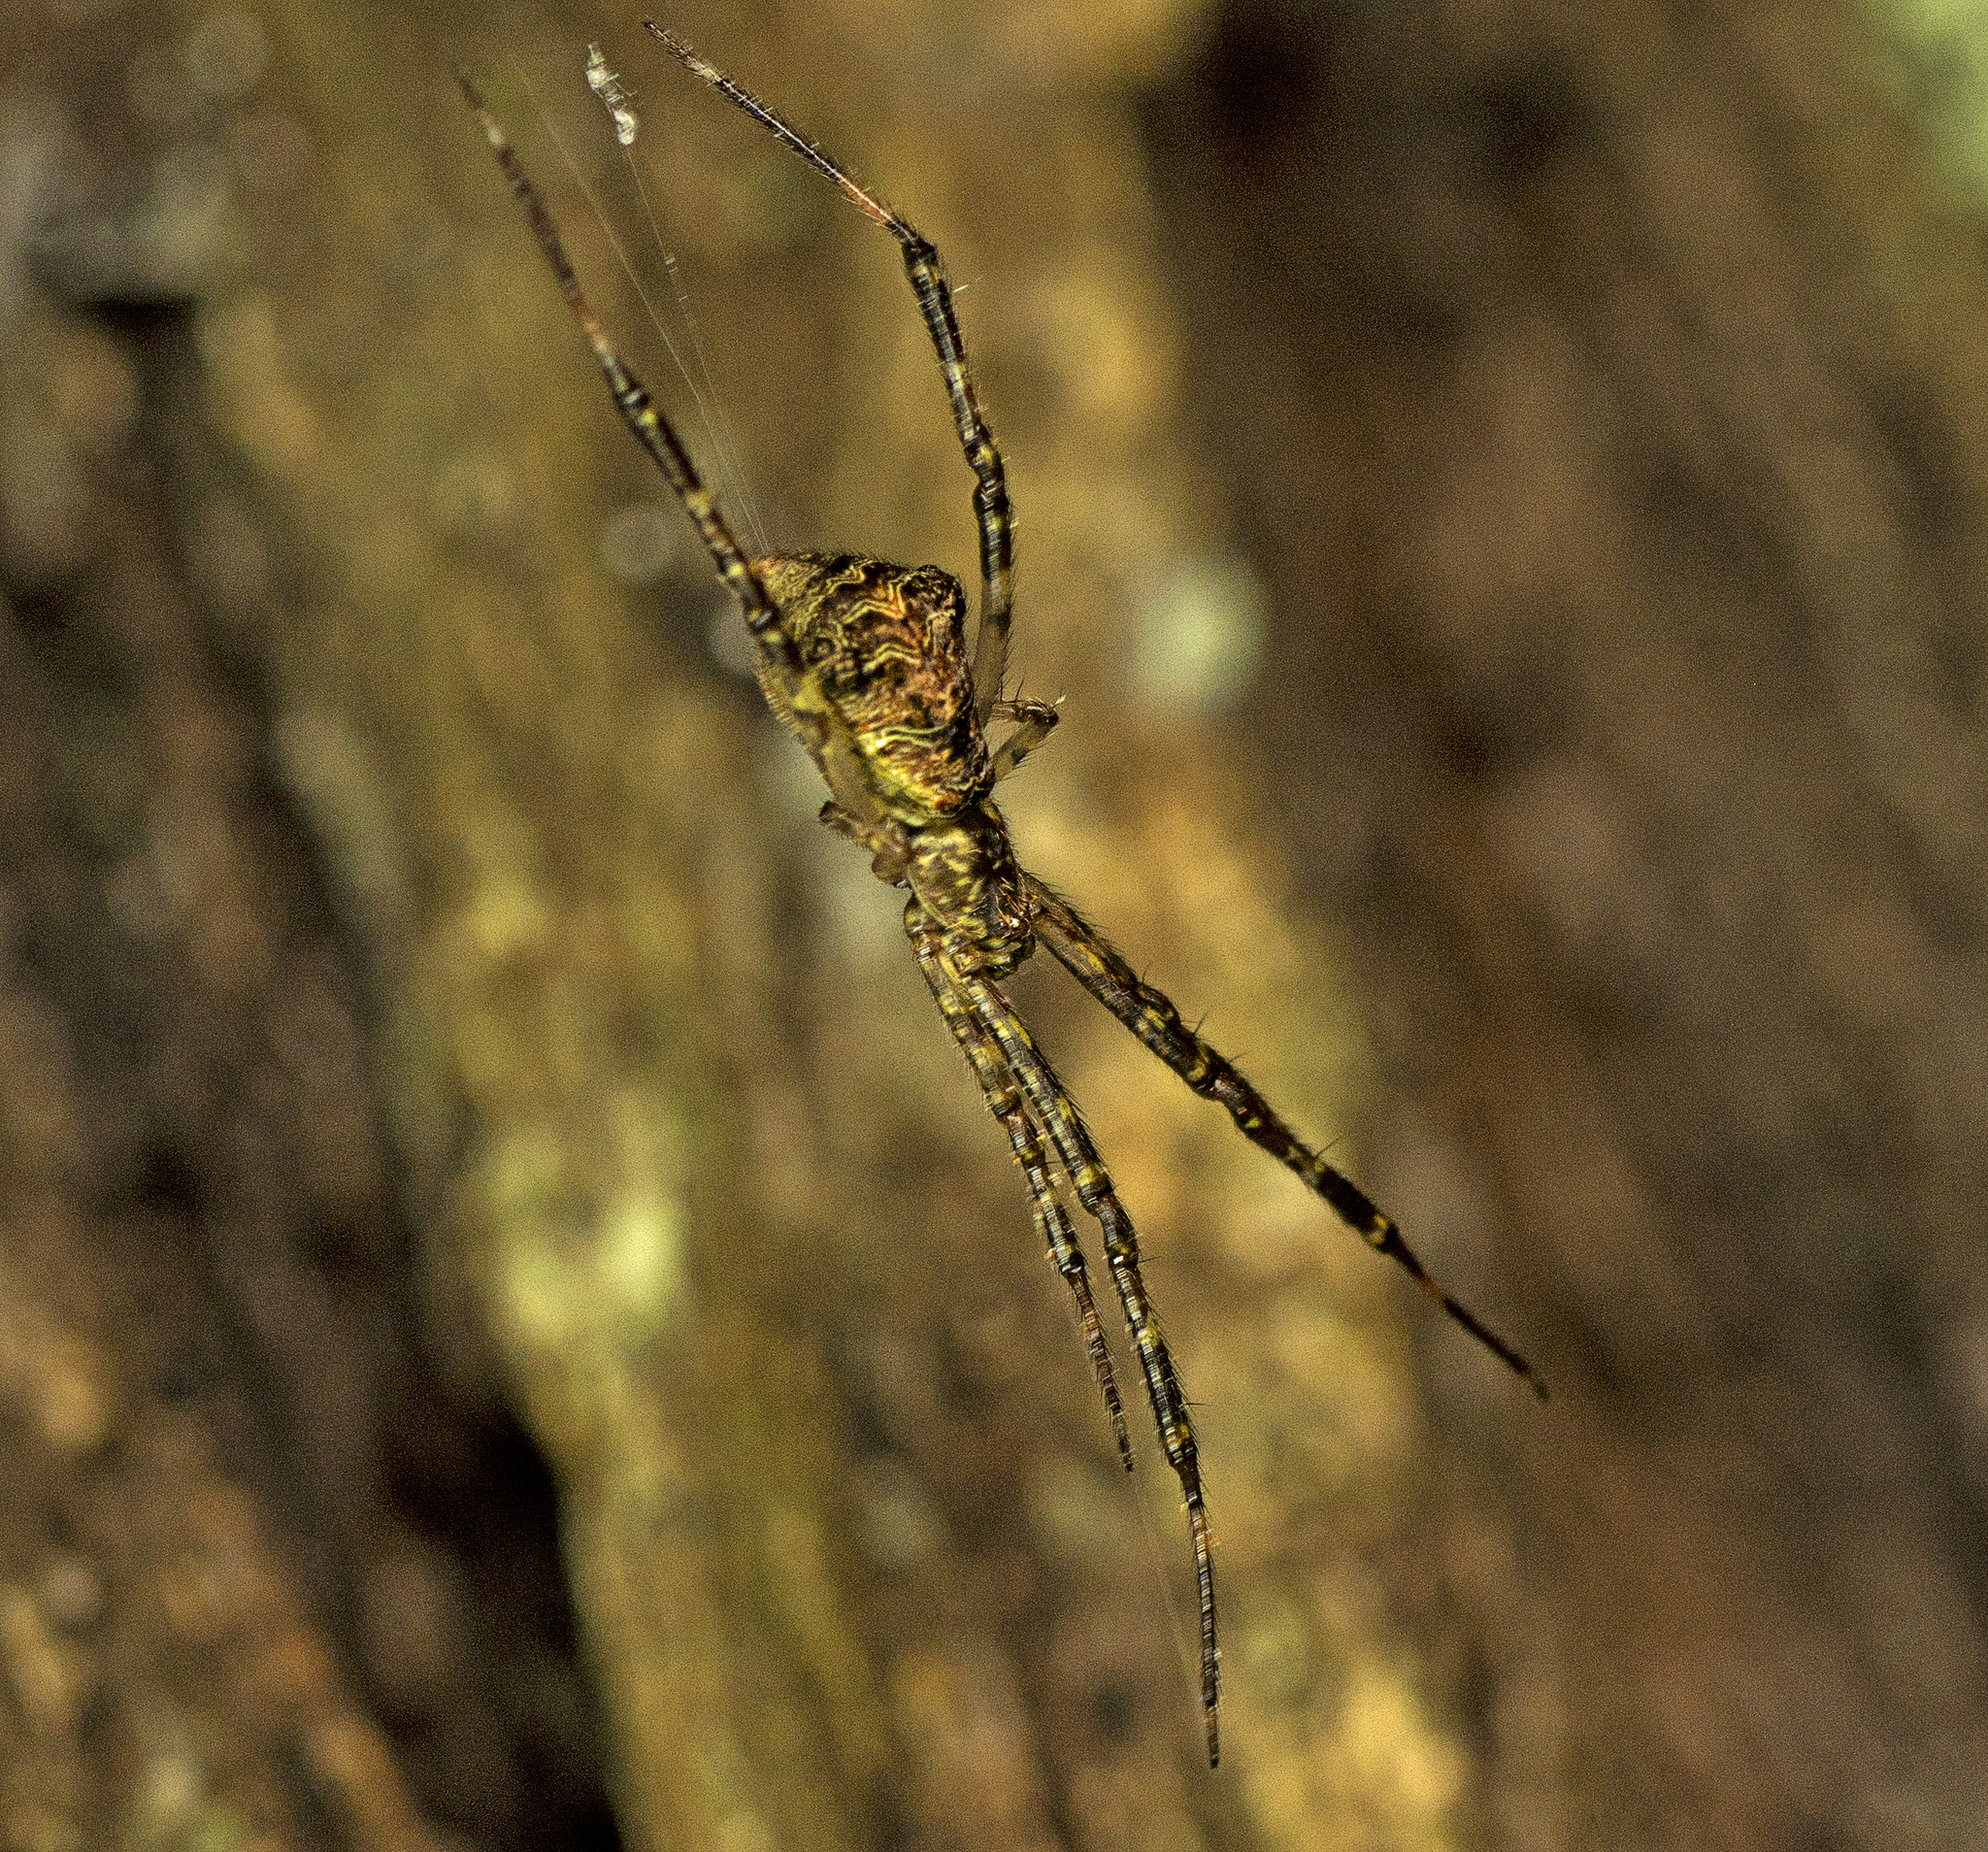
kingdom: Animalia
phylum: Arthropoda
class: Arachnida
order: Araneae
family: Theridiidae
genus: Janula
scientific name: Janula bicornis
